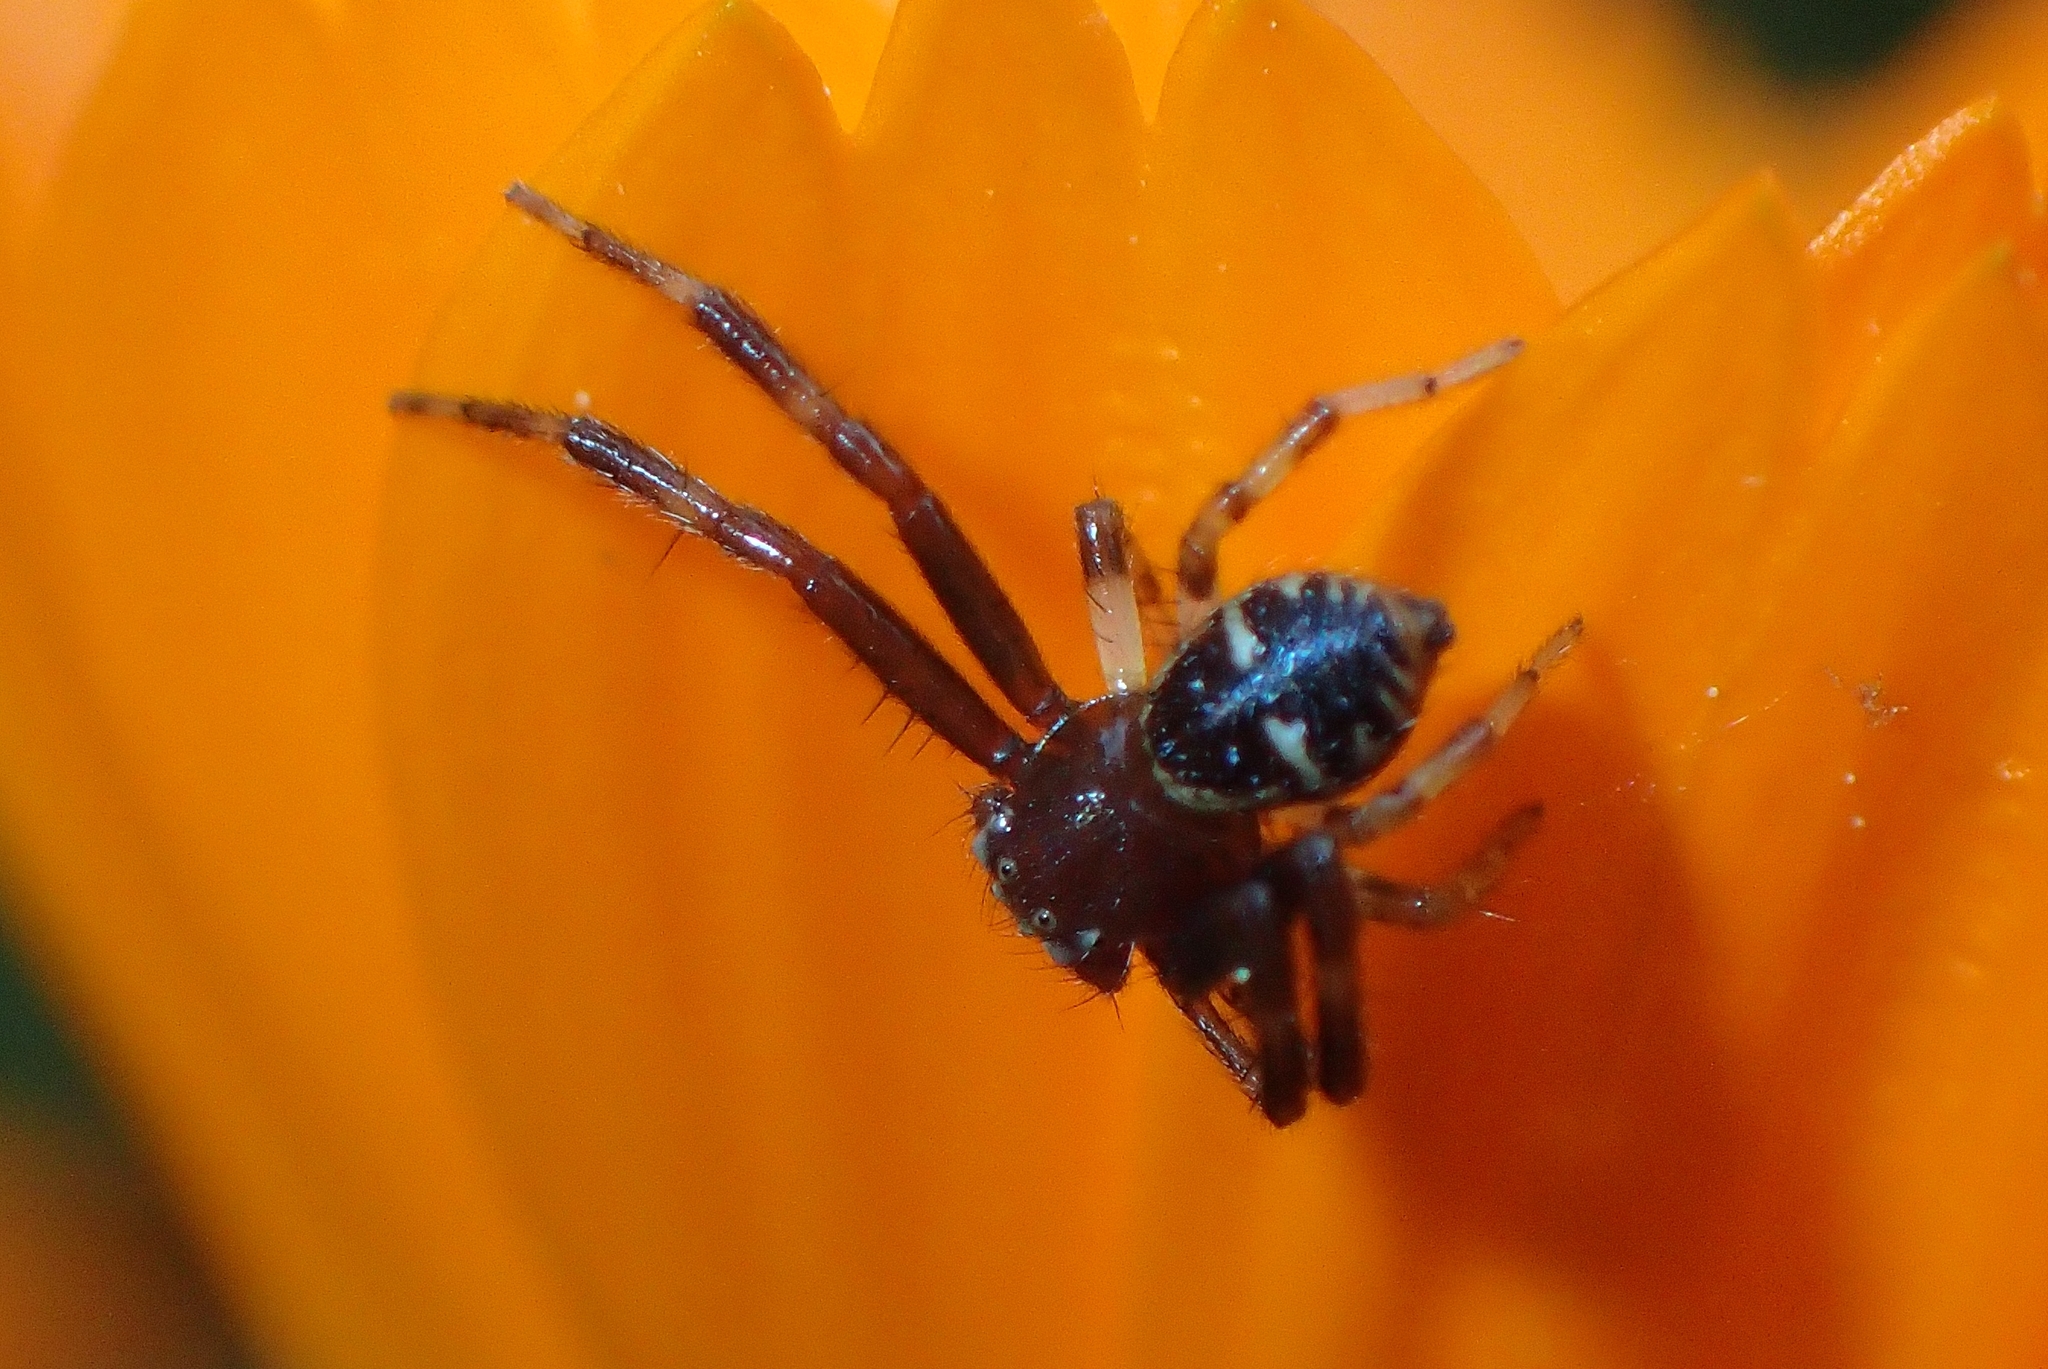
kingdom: Animalia
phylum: Arthropoda
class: Arachnida
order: Araneae
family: Thomisidae
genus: Synema
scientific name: Synema globosum
